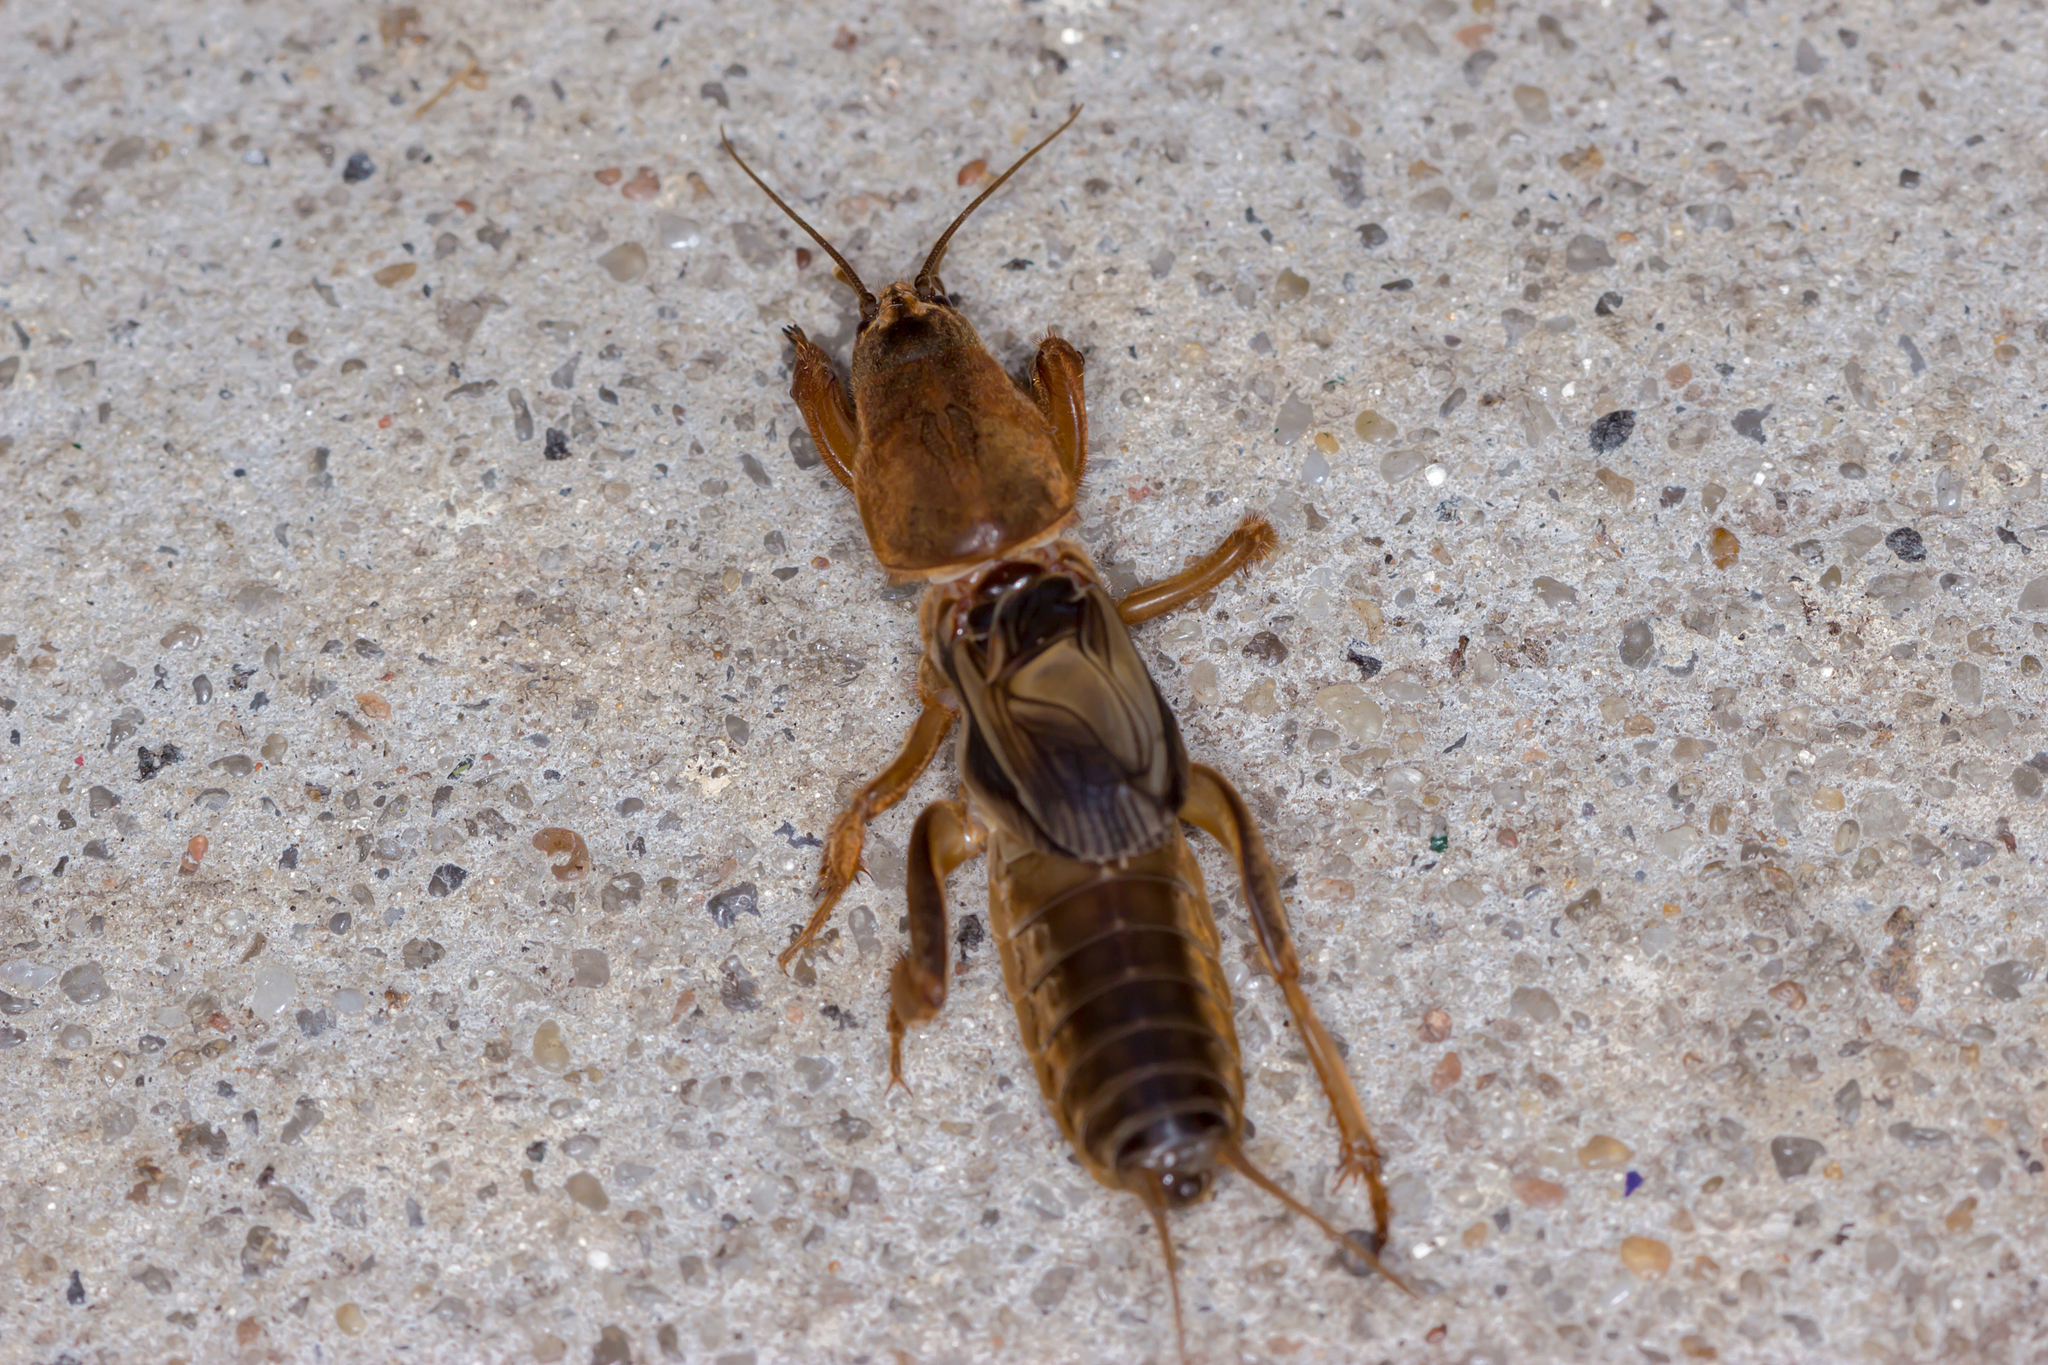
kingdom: Animalia
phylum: Arthropoda
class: Insecta
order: Orthoptera
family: Gryllotalpidae
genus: Gryllotalpa
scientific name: Gryllotalpa australis
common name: Southern mole cricket
